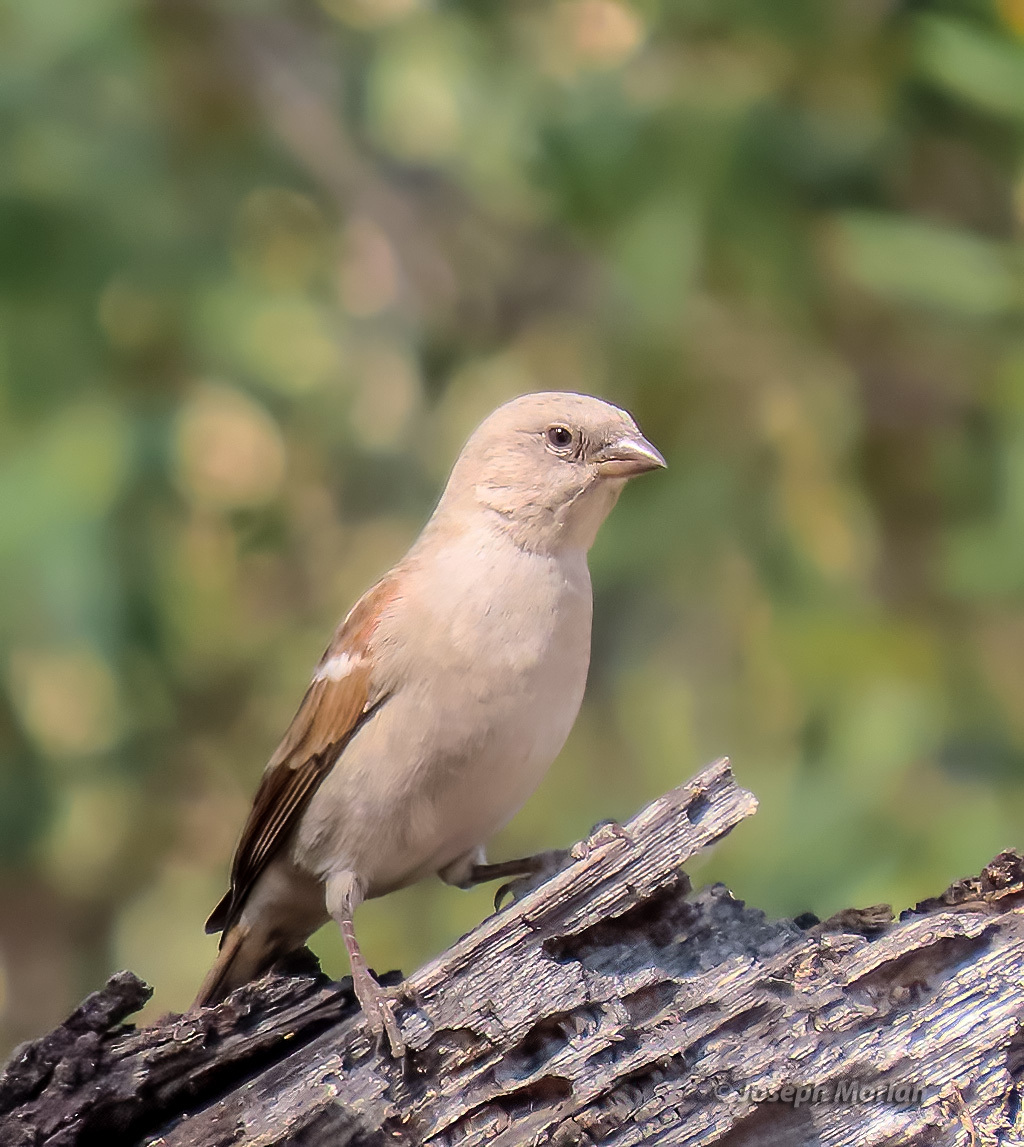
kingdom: Animalia
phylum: Chordata
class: Aves
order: Passeriformes
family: Passeridae
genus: Passer
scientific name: Passer diffusus
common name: Southern grey-headed sparrow
